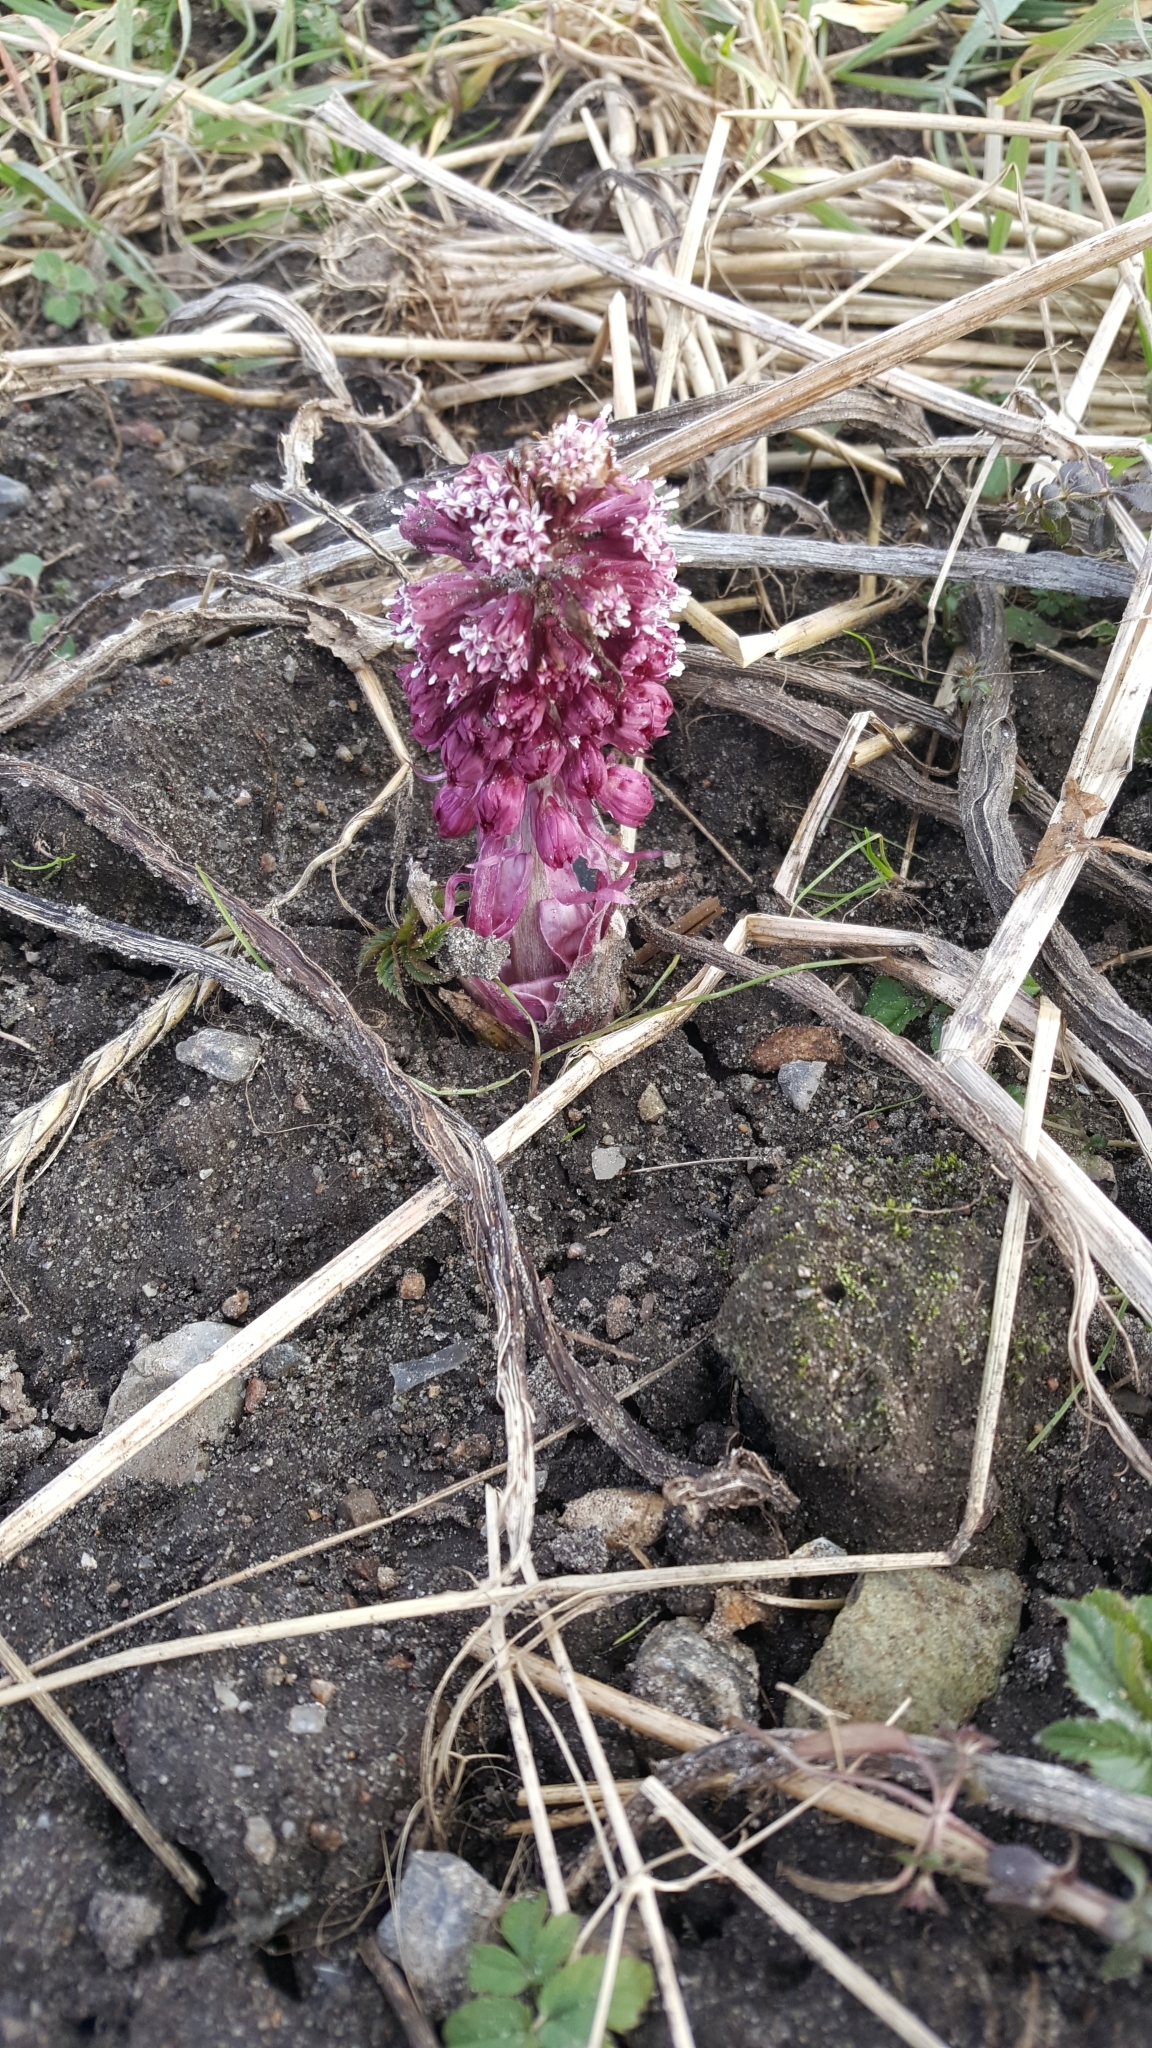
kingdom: Plantae
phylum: Tracheophyta
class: Magnoliopsida
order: Asterales
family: Asteraceae
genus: Petasites
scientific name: Petasites hybridus
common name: Butterbur
